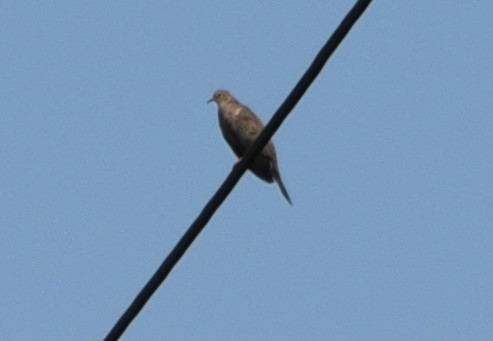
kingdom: Animalia
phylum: Chordata
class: Aves
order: Columbiformes
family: Columbidae
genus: Zenaida
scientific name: Zenaida macroura
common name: Mourning dove
